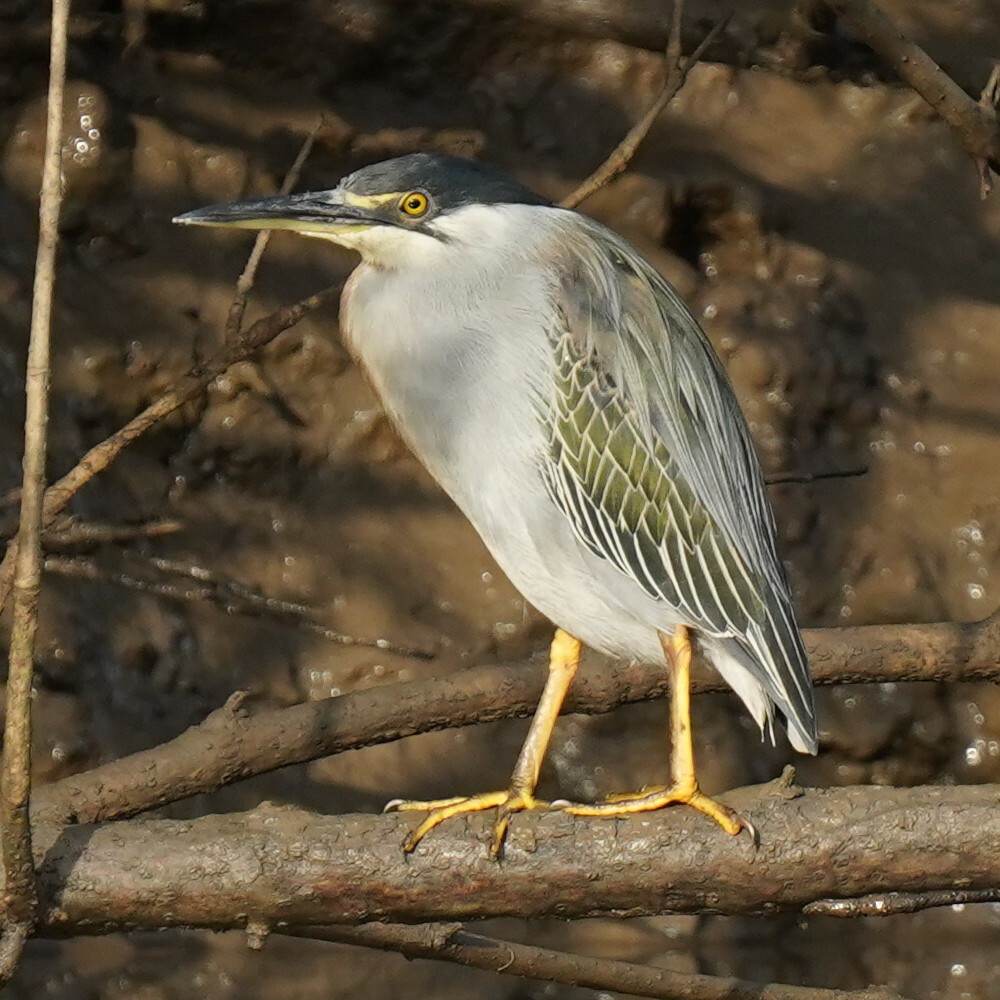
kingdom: Animalia
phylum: Chordata
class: Aves
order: Pelecaniformes
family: Ardeidae
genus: Butorides
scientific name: Butorides striata
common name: Striated heron
